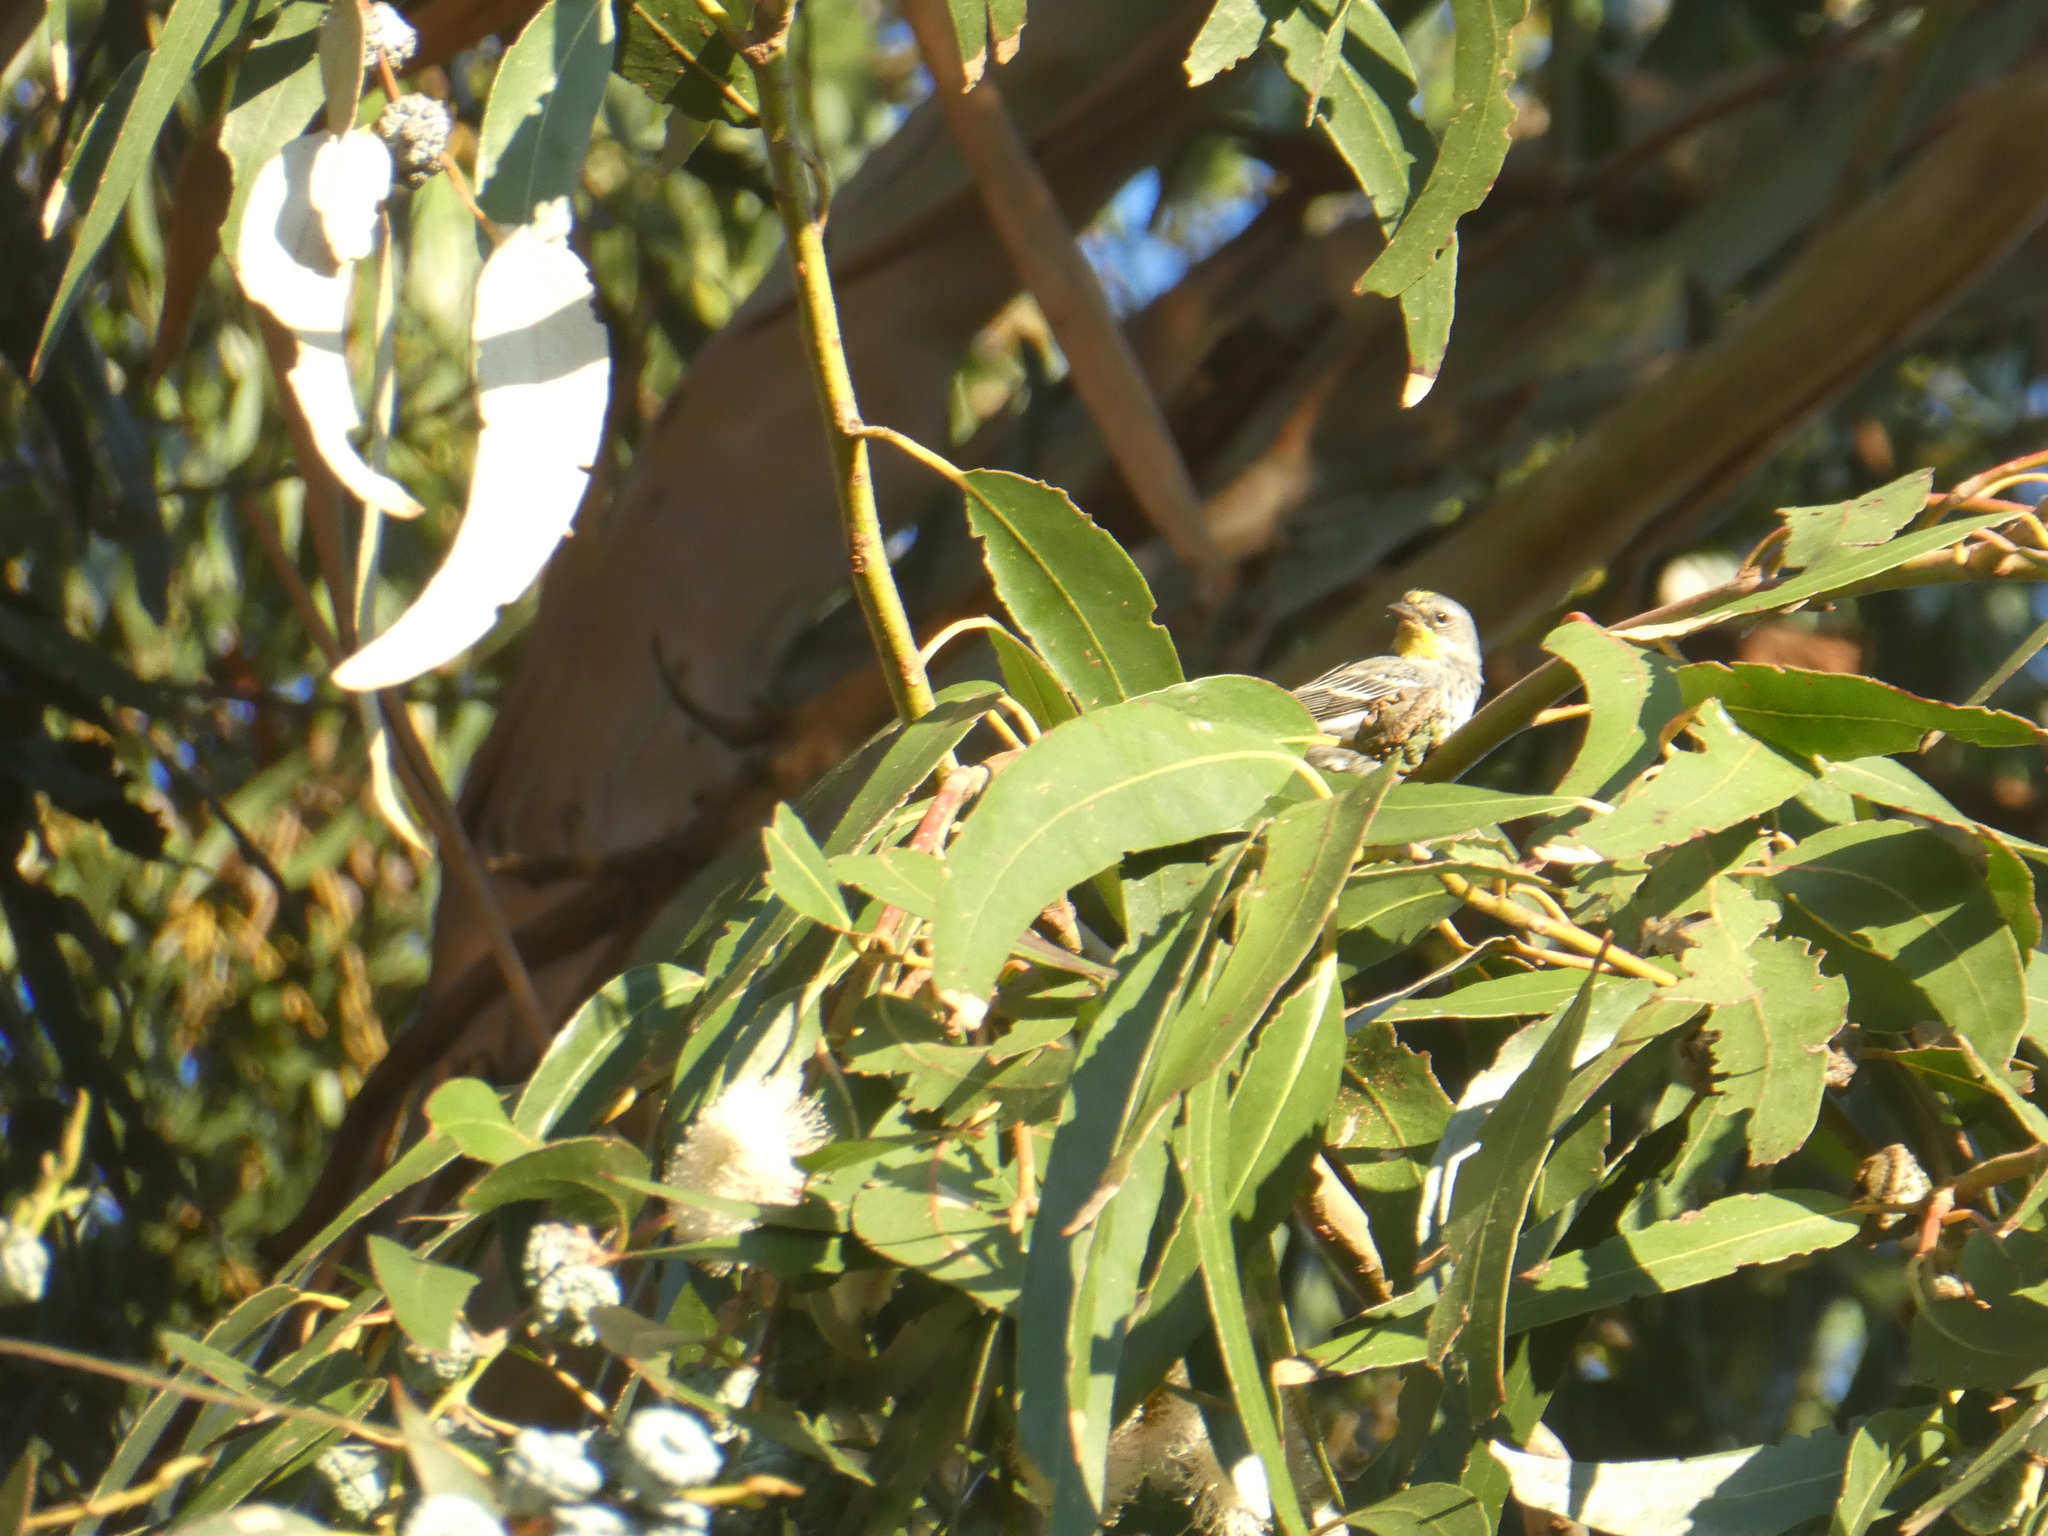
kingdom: Animalia
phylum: Chordata
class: Aves
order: Passeriformes
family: Parulidae
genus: Setophaga
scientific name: Setophaga auduboni
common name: Audubon's warbler
